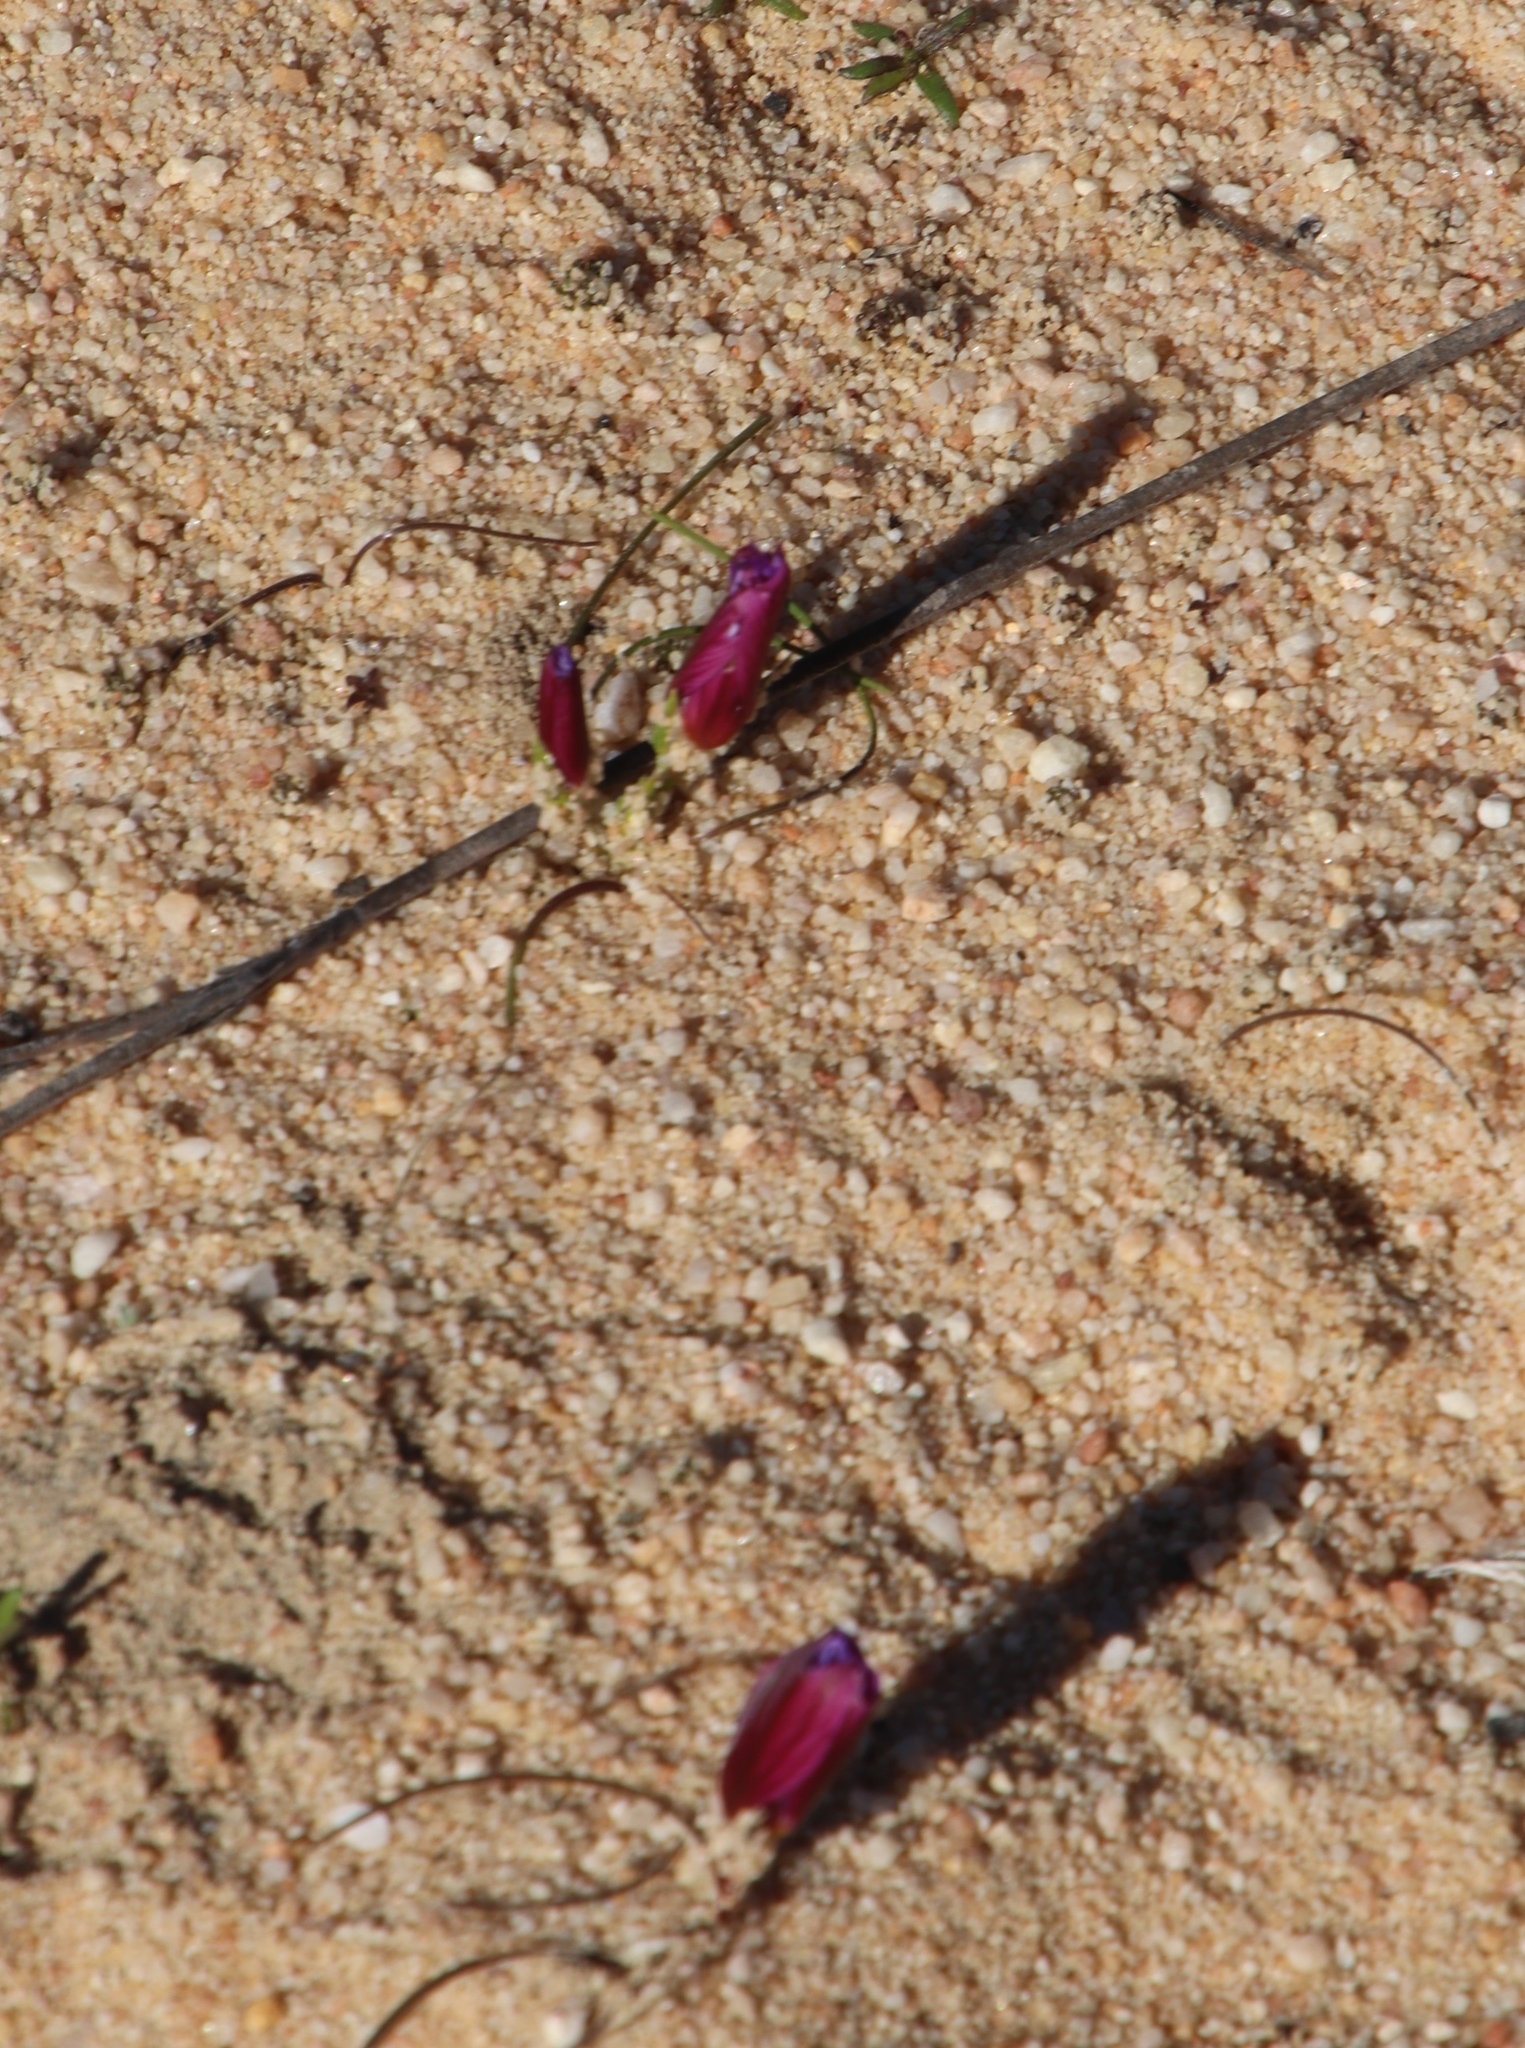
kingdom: Plantae
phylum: Tracheophyta
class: Liliopsida
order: Asparagales
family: Iridaceae
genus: Romulea
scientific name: Romulea vinacea
